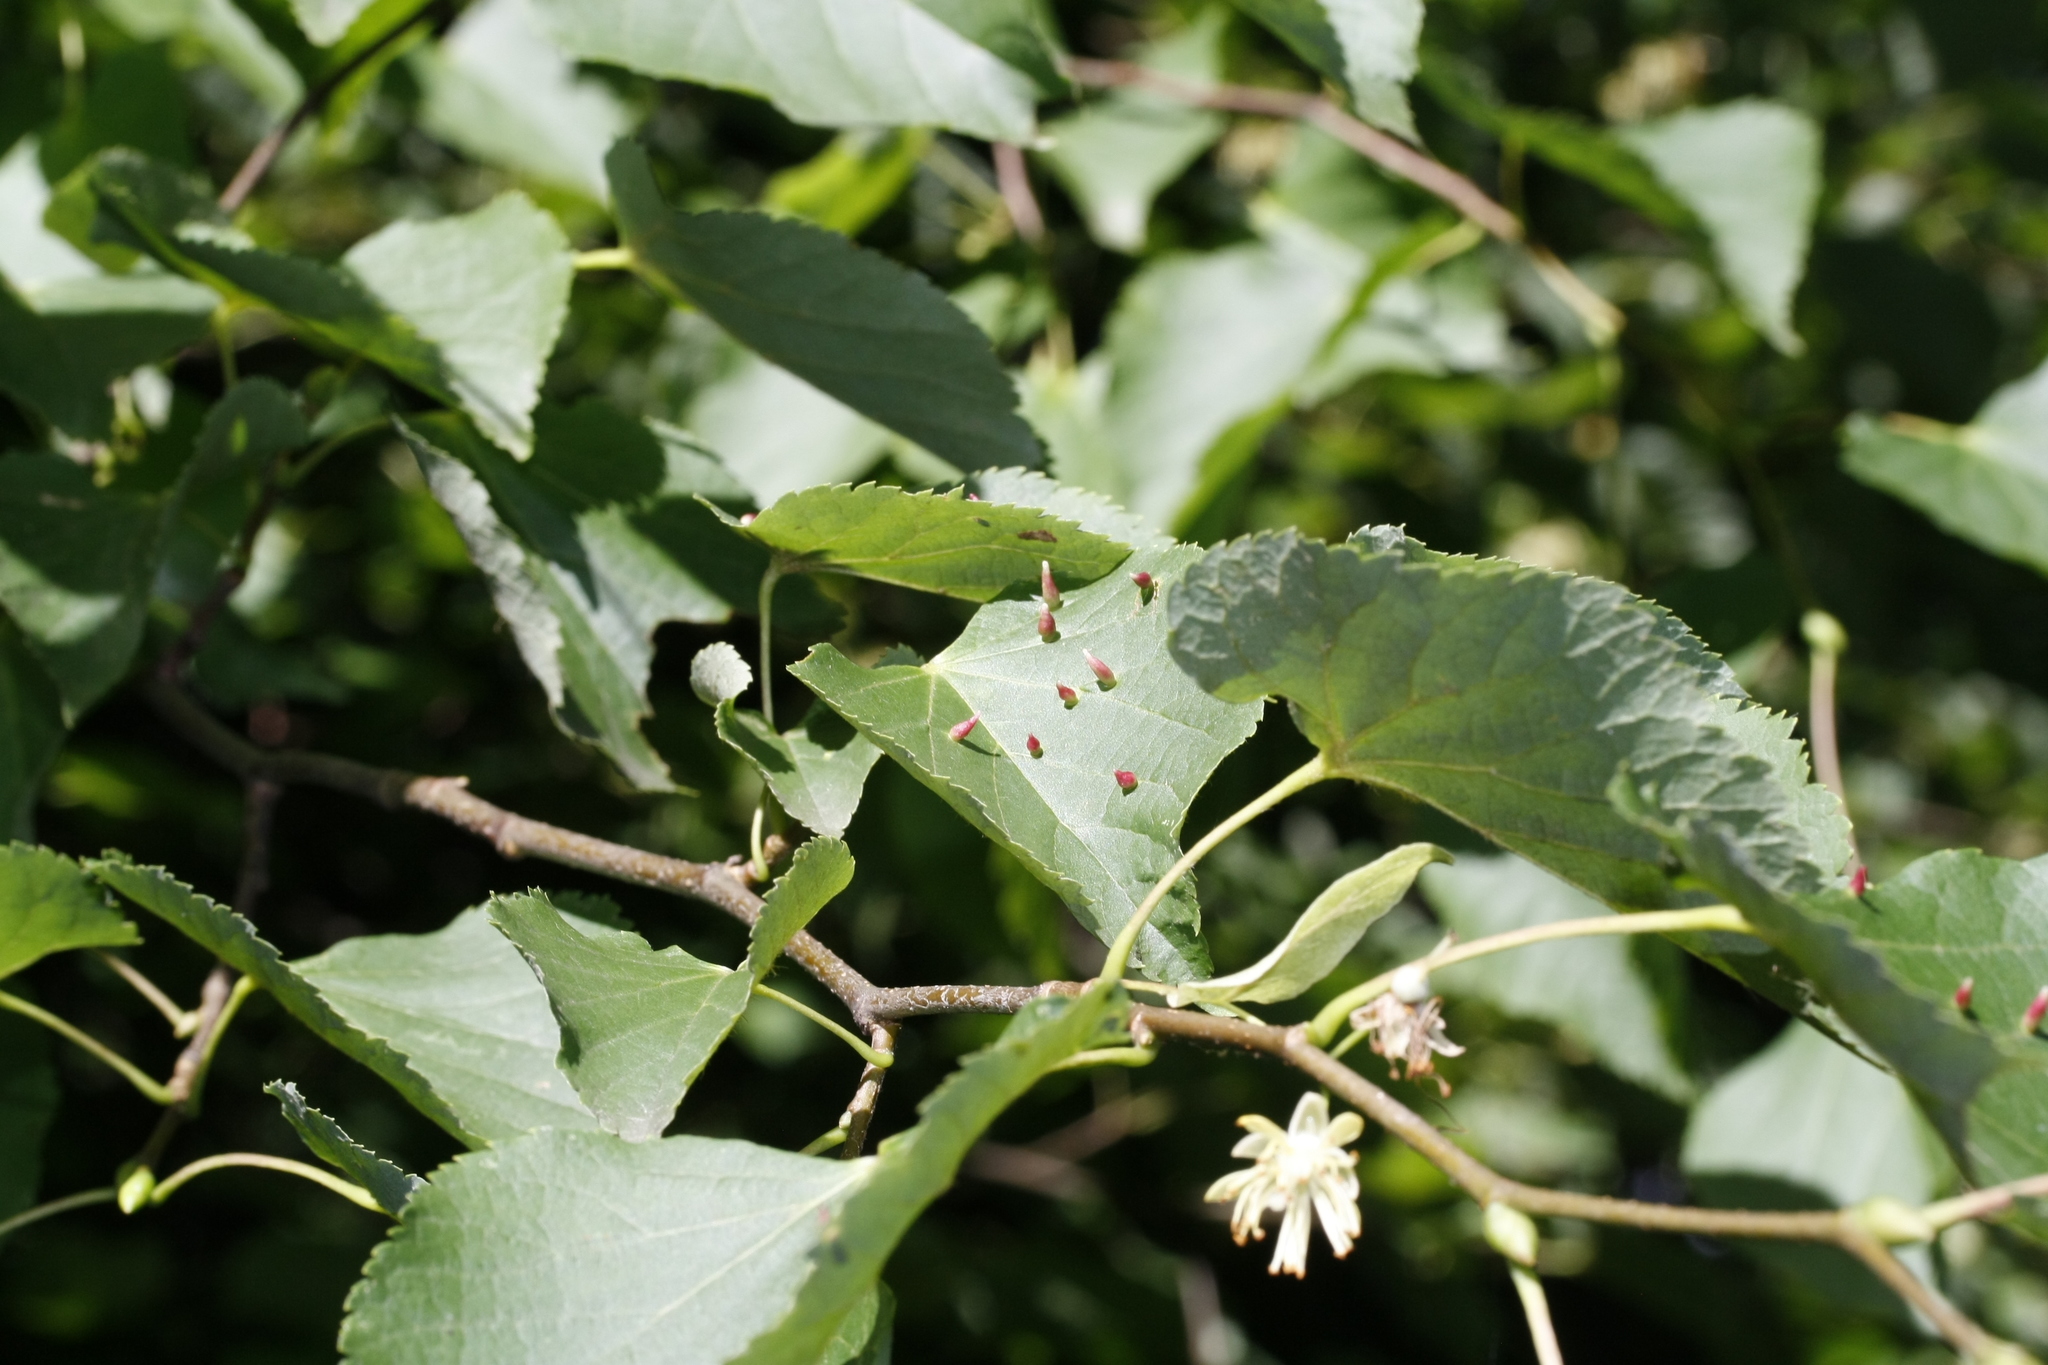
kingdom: Animalia
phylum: Arthropoda
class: Arachnida
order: Trombidiformes
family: Eriophyidae
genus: Eriophyes
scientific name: Eriophyes tiliae
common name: Red nail gall mite
